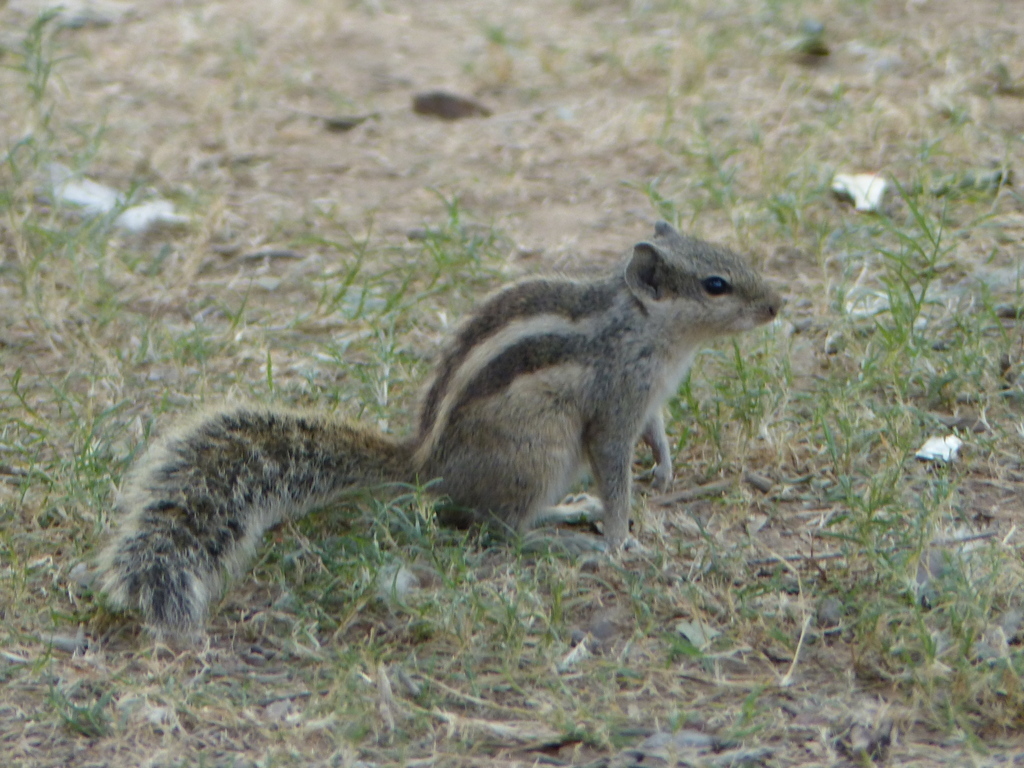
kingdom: Animalia
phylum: Chordata
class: Mammalia
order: Rodentia
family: Sciuridae
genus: Funambulus
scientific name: Funambulus pennantii
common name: Northern palm squirrel
